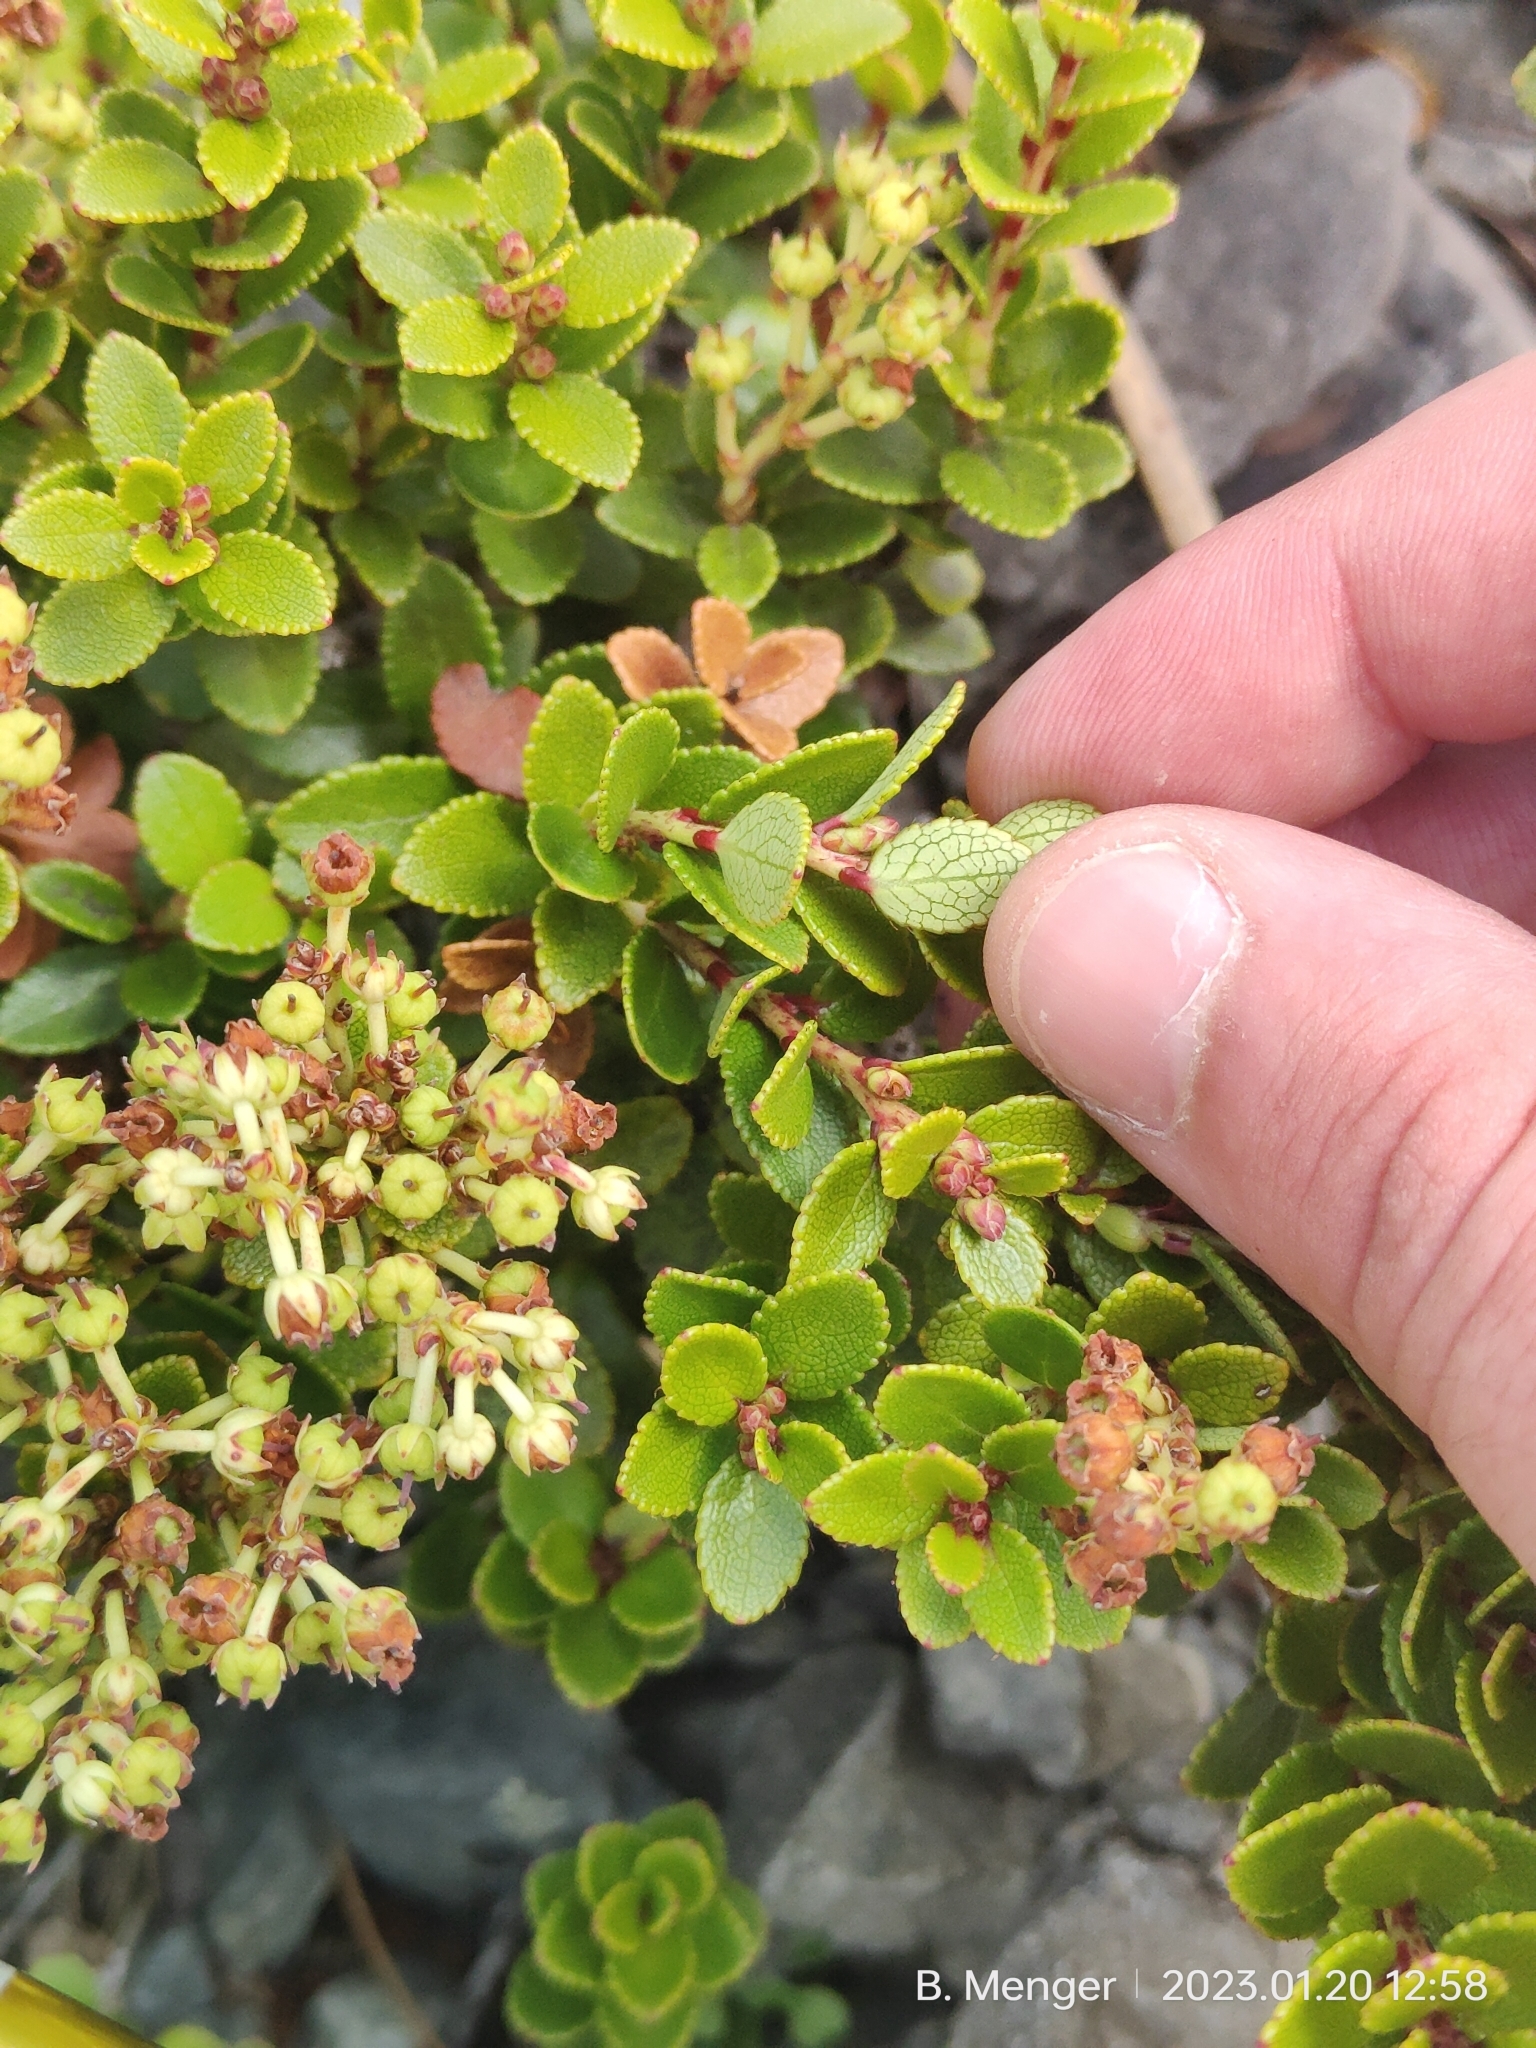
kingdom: Plantae
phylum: Tracheophyta
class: Magnoliopsida
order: Ericales
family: Ericaceae
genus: Gaultheria
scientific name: Gaultheria crassa
